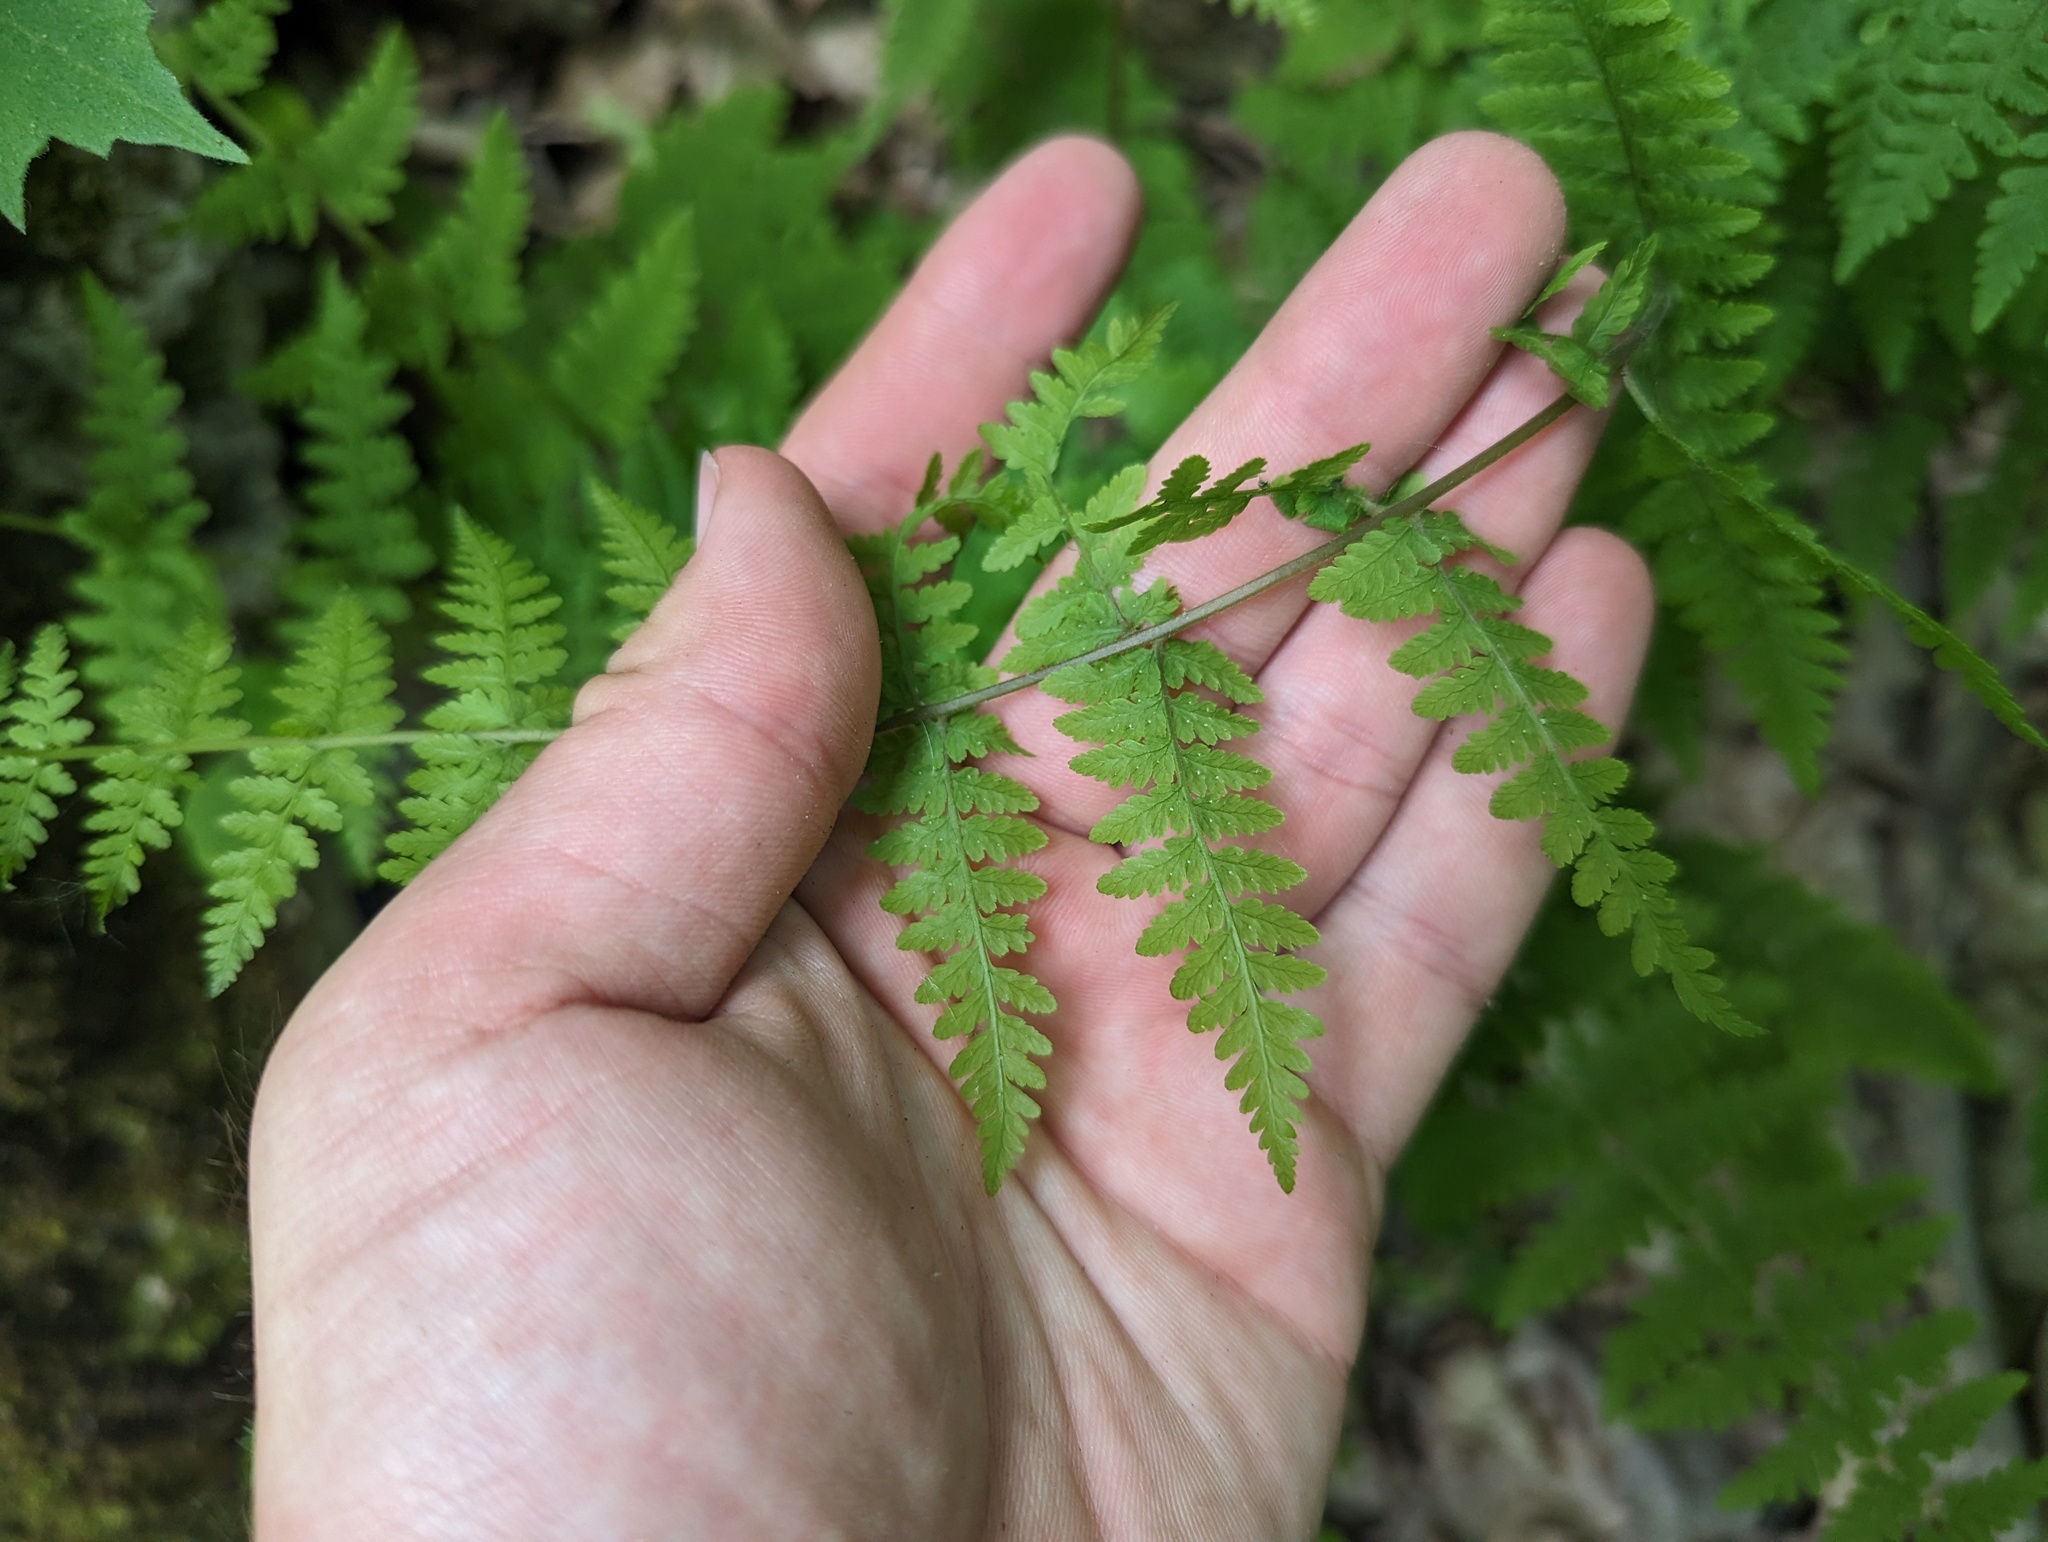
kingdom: Plantae
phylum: Tracheophyta
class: Polypodiopsida
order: Polypodiales
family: Cystopteridaceae
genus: Cystopteris
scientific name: Cystopteris bulbifera
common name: Bulblet bladder fern
